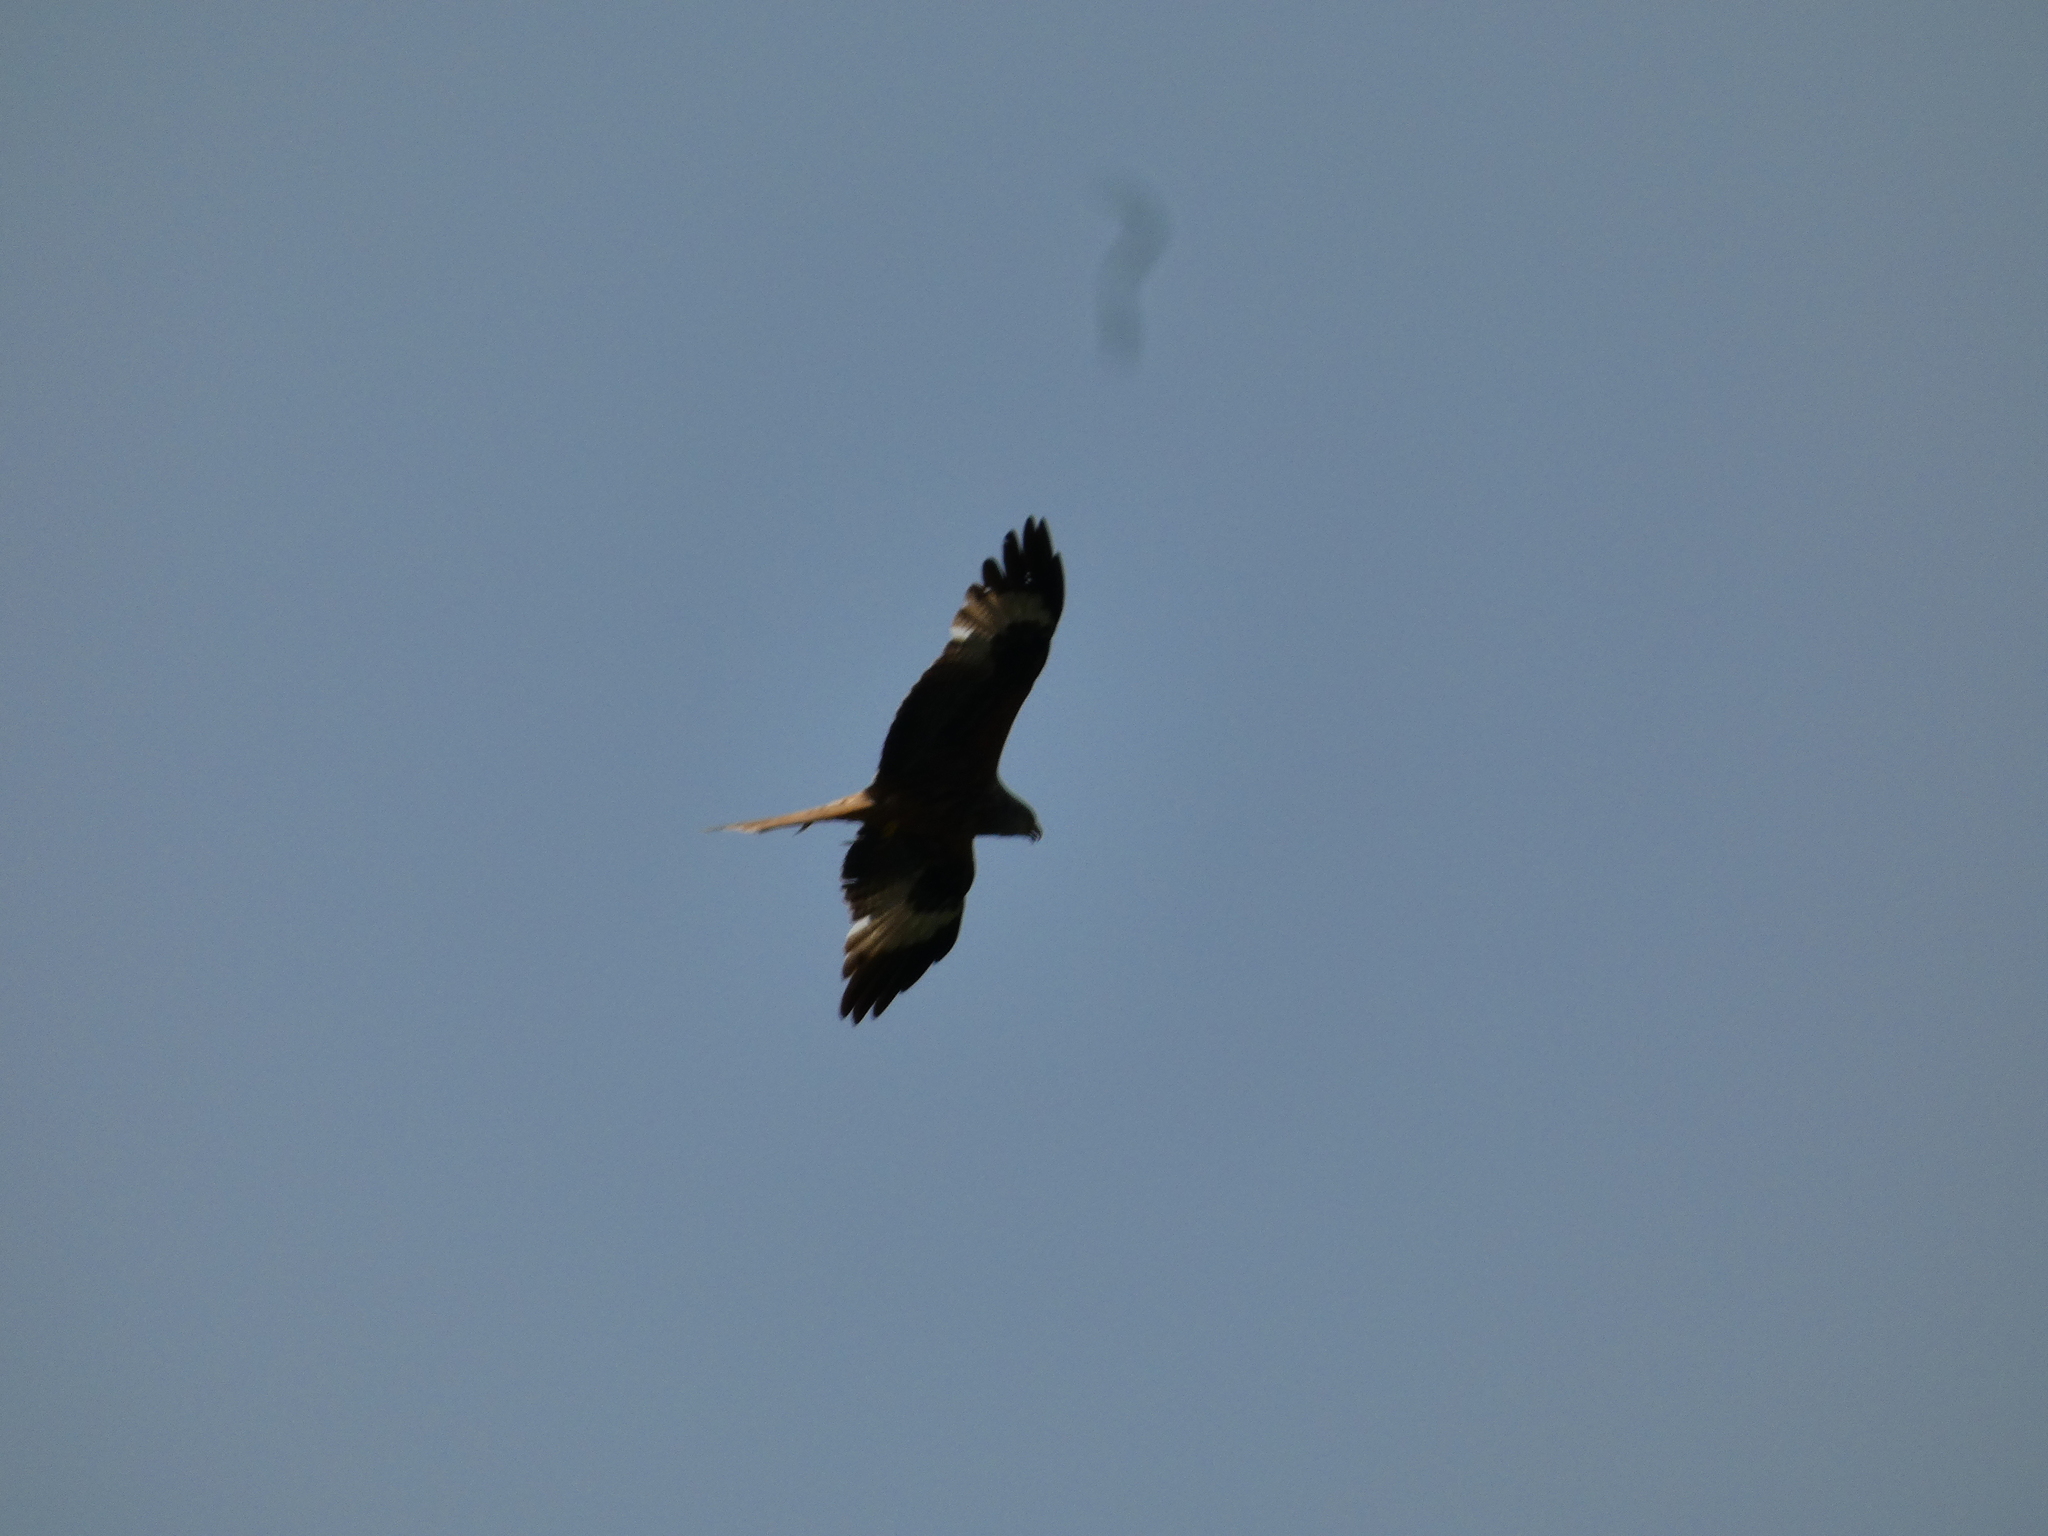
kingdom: Animalia
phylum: Chordata
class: Aves
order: Accipitriformes
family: Accipitridae
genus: Milvus
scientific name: Milvus milvus
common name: Red kite
